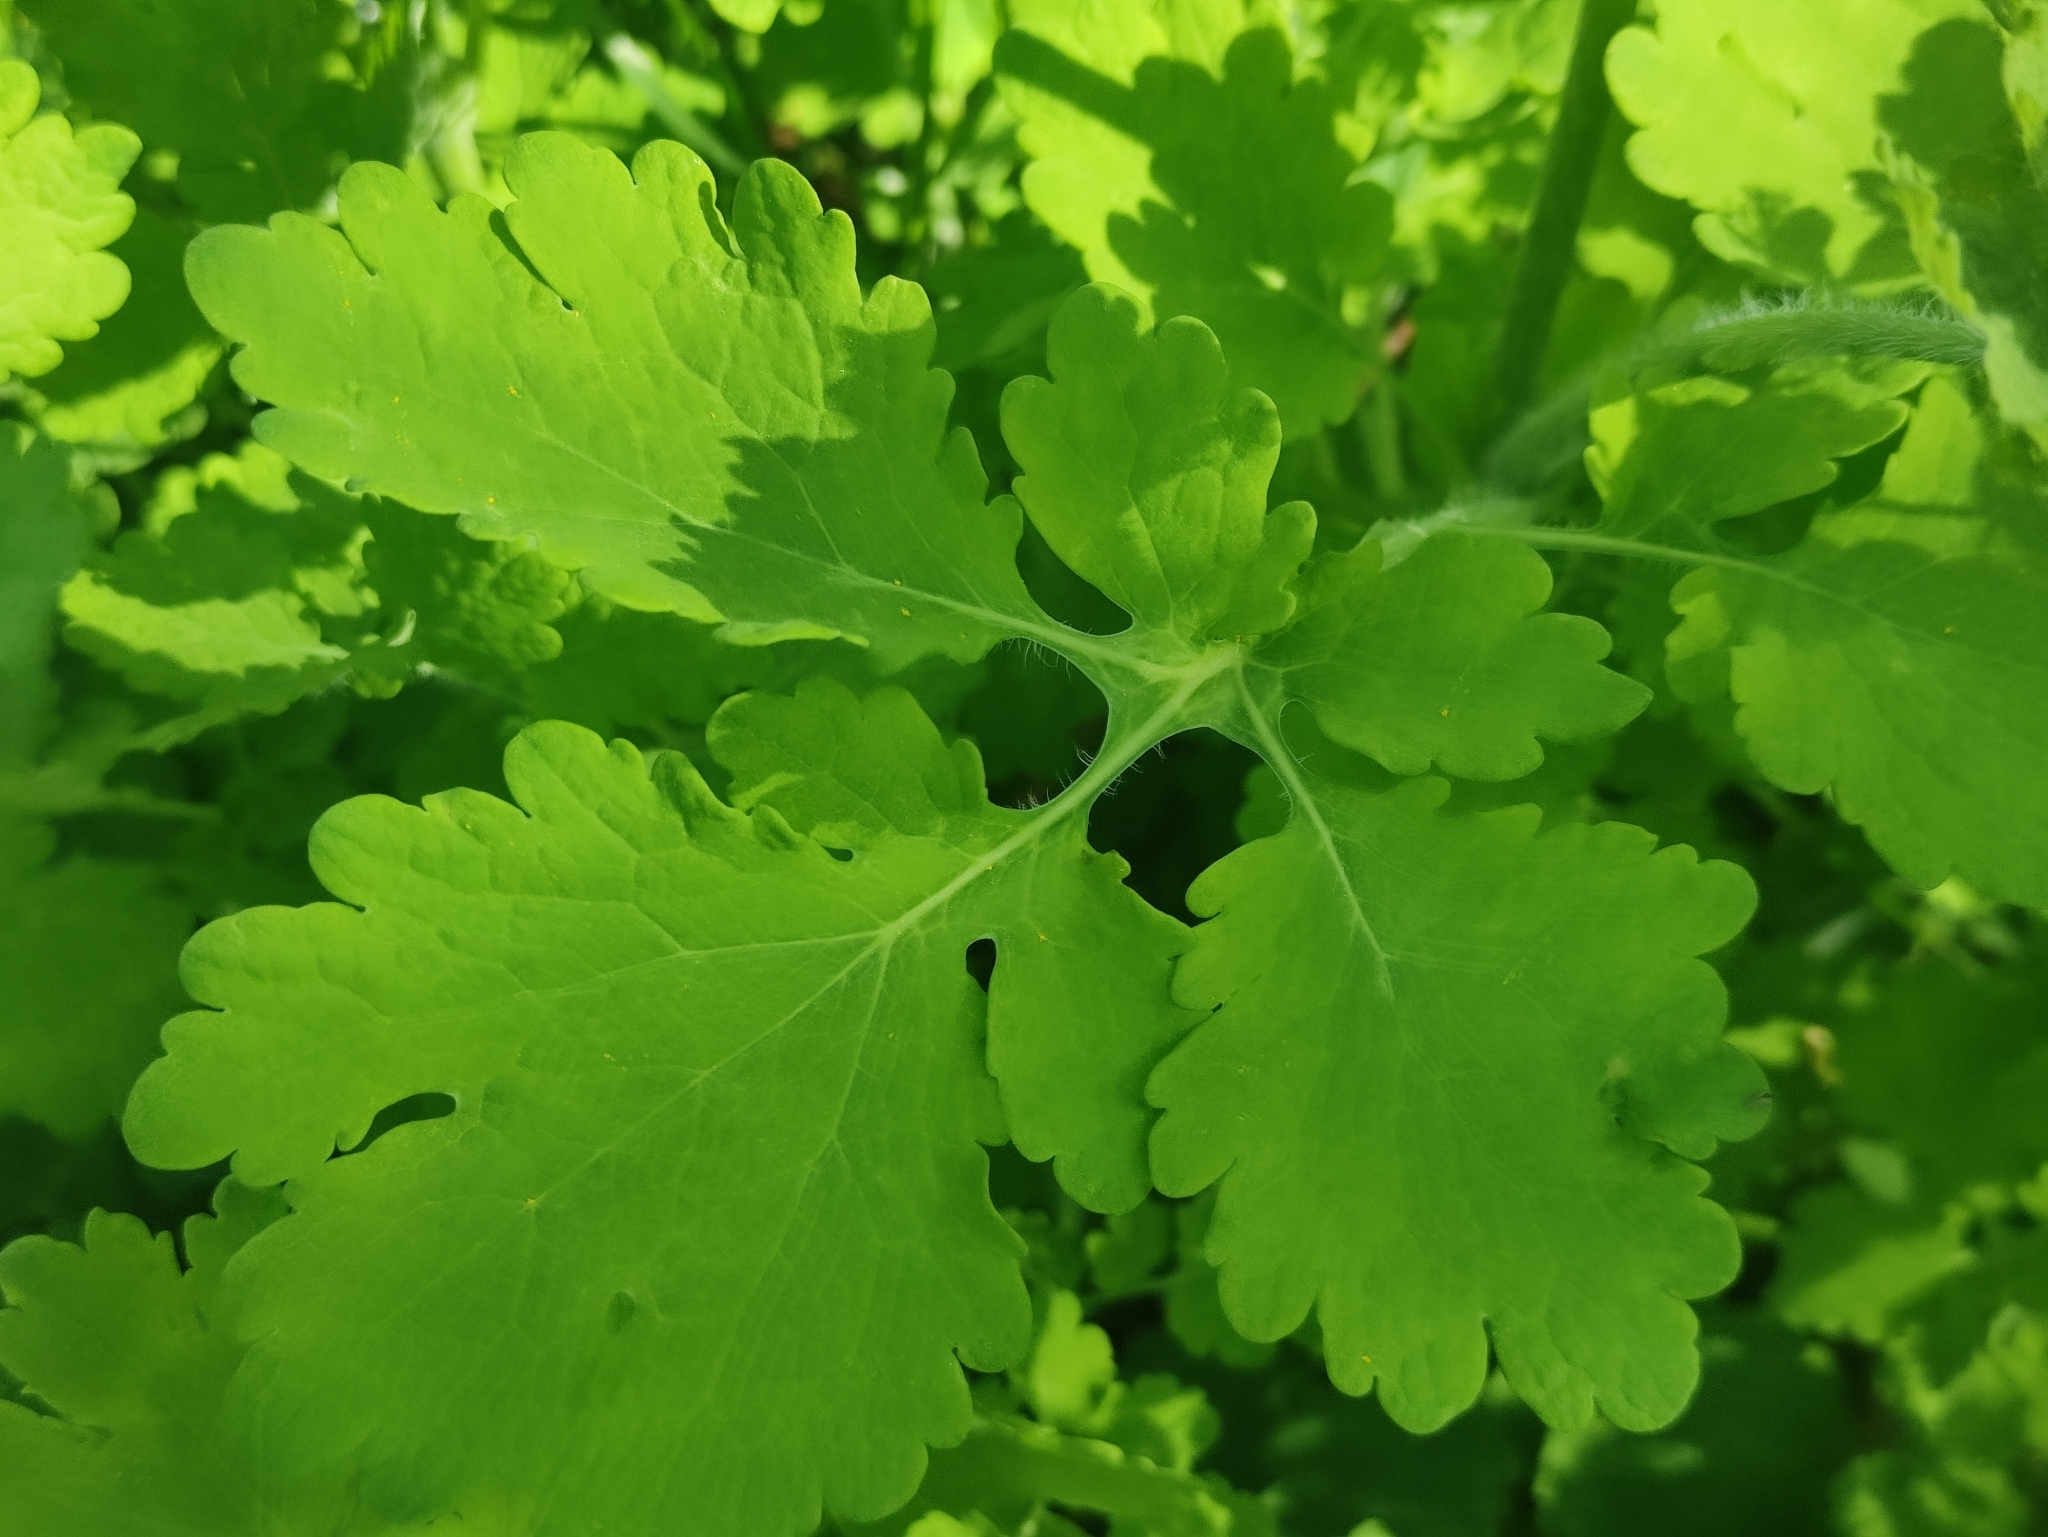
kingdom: Plantae
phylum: Tracheophyta
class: Magnoliopsida
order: Ranunculales
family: Papaveraceae
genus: Chelidonium
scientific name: Chelidonium majus
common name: Greater celandine
